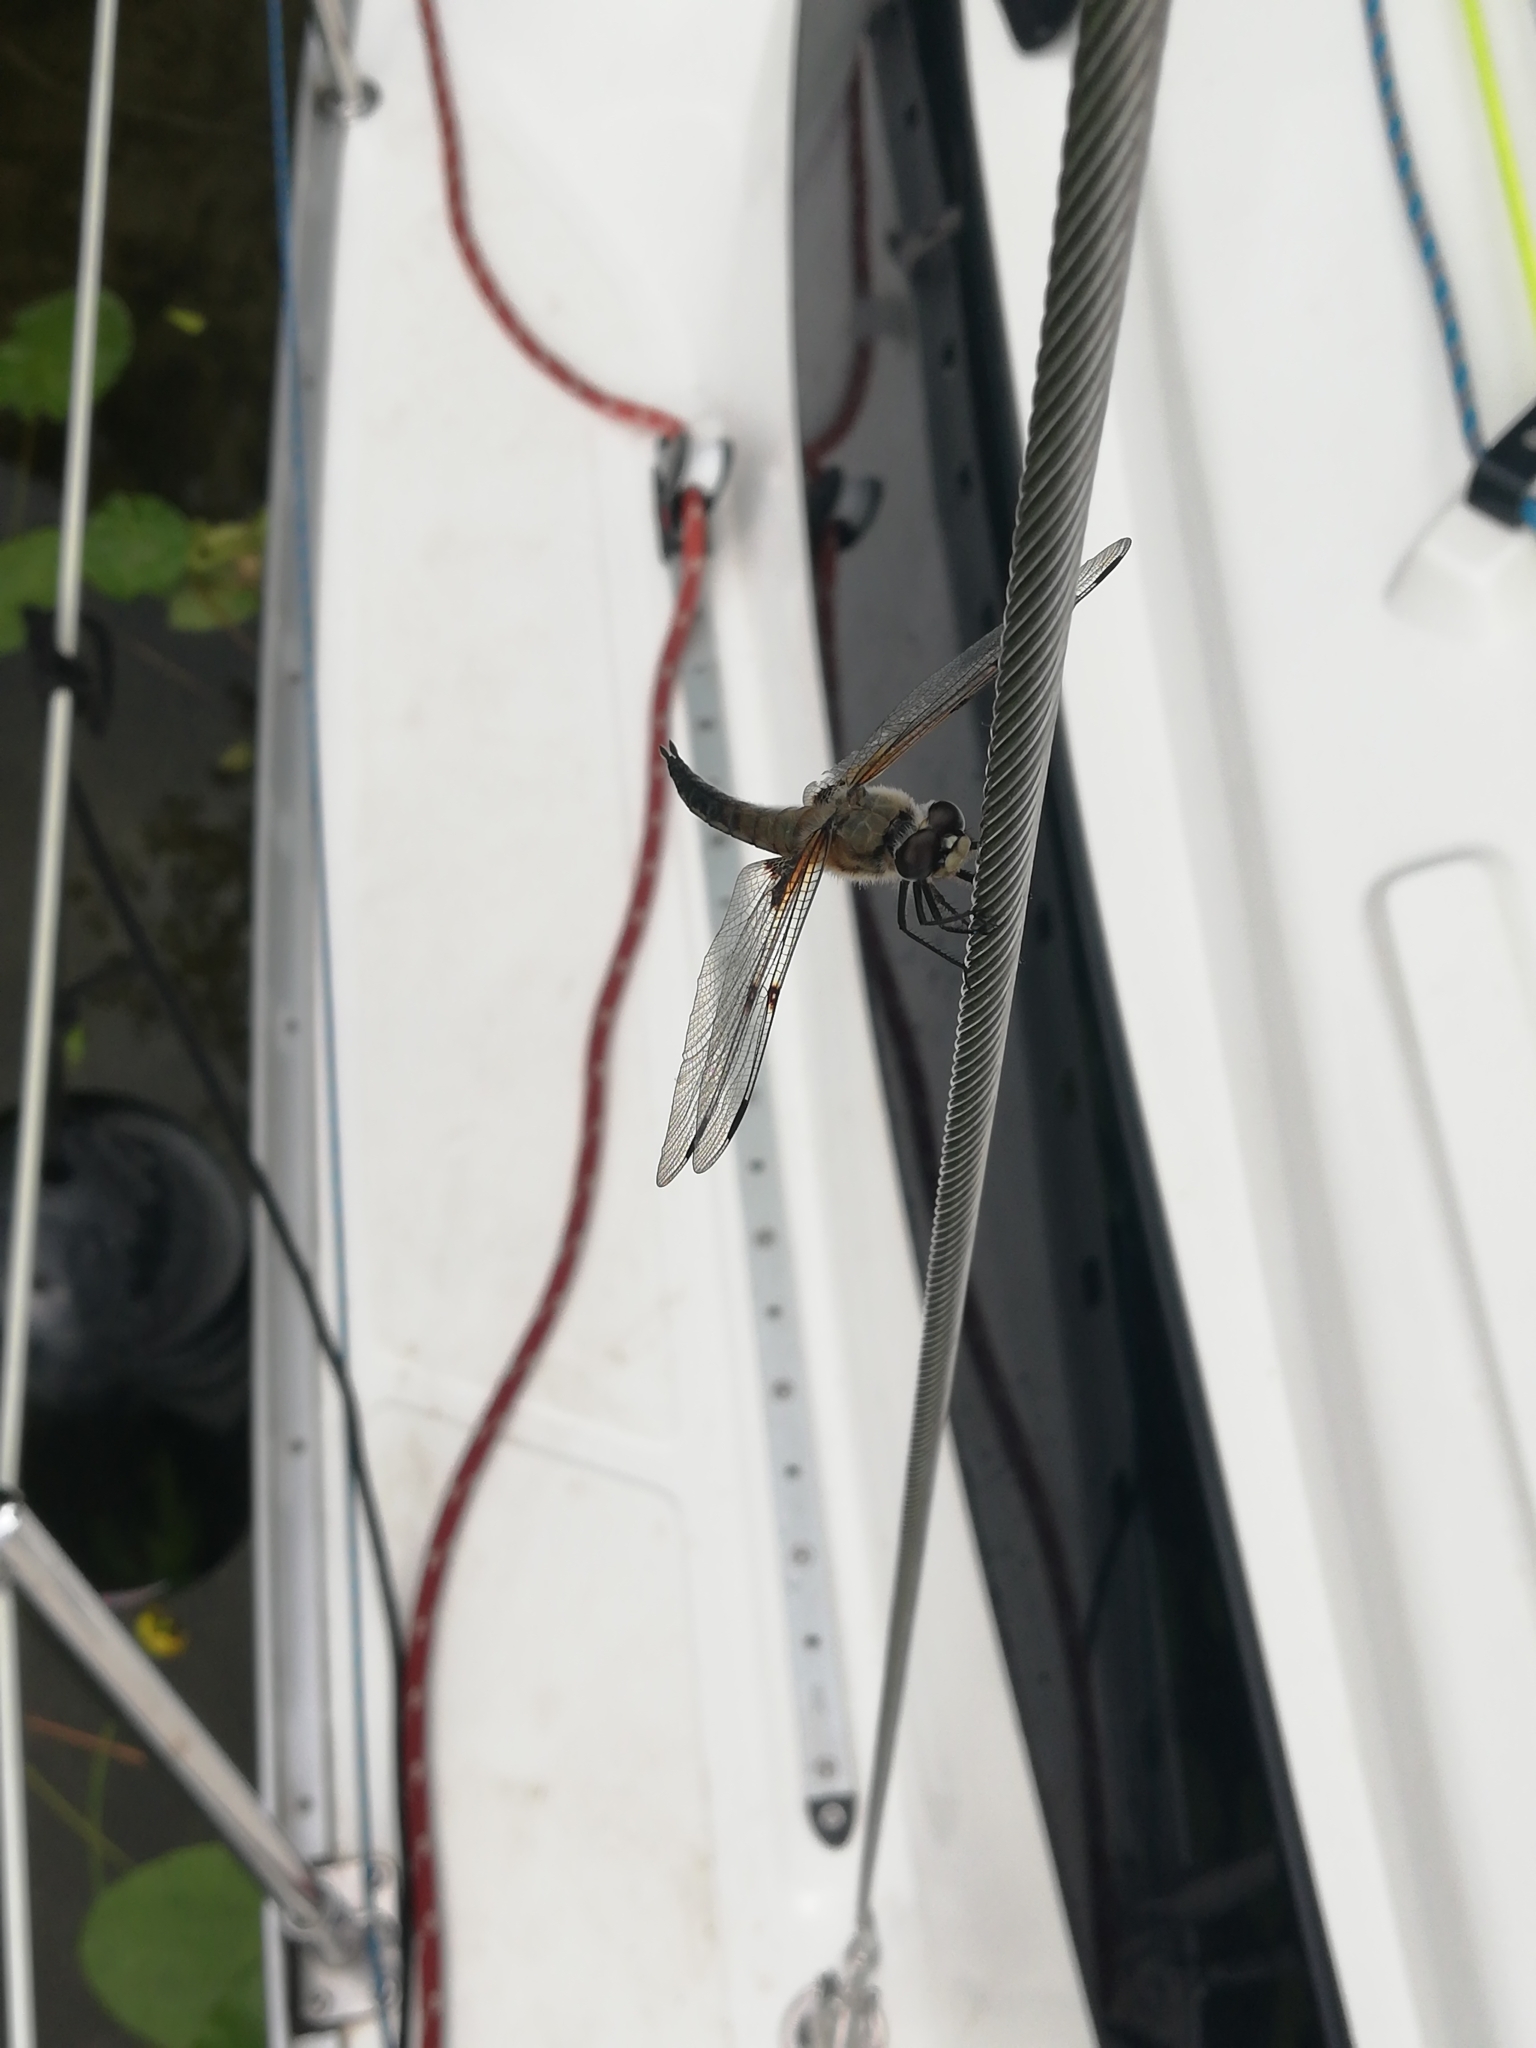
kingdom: Animalia
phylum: Arthropoda
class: Insecta
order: Odonata
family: Libellulidae
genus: Libellula
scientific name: Libellula quadrimaculata
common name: Four-spotted chaser
